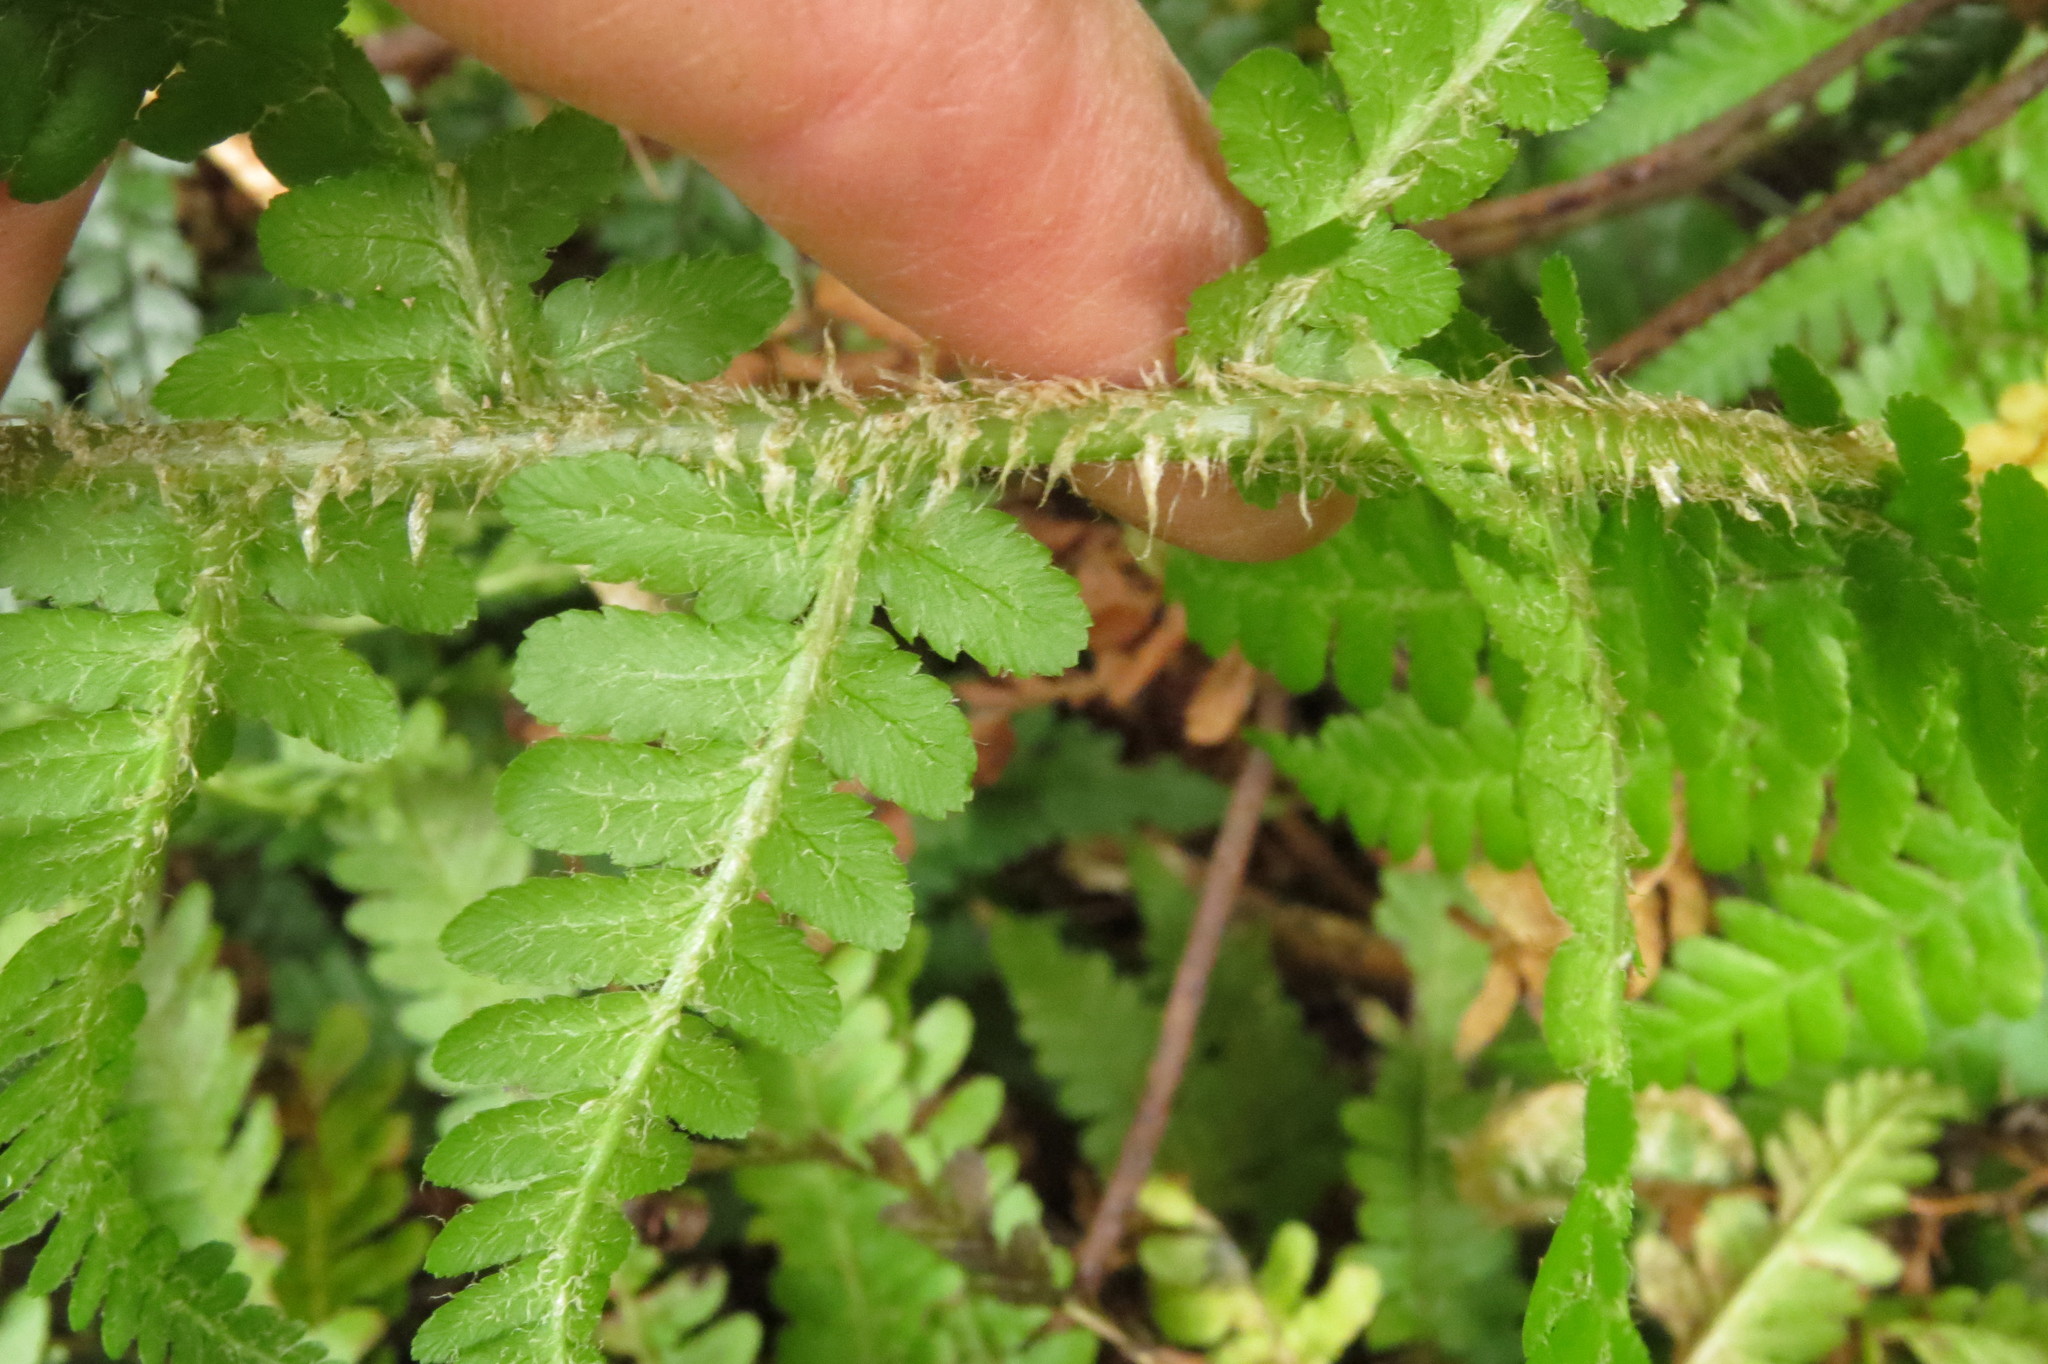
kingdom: Plantae
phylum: Tracheophyta
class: Polypodiopsida
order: Polypodiales
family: Dryopteridaceae
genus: Dryopteris
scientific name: Dryopteris filix-mas
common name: Male fern
